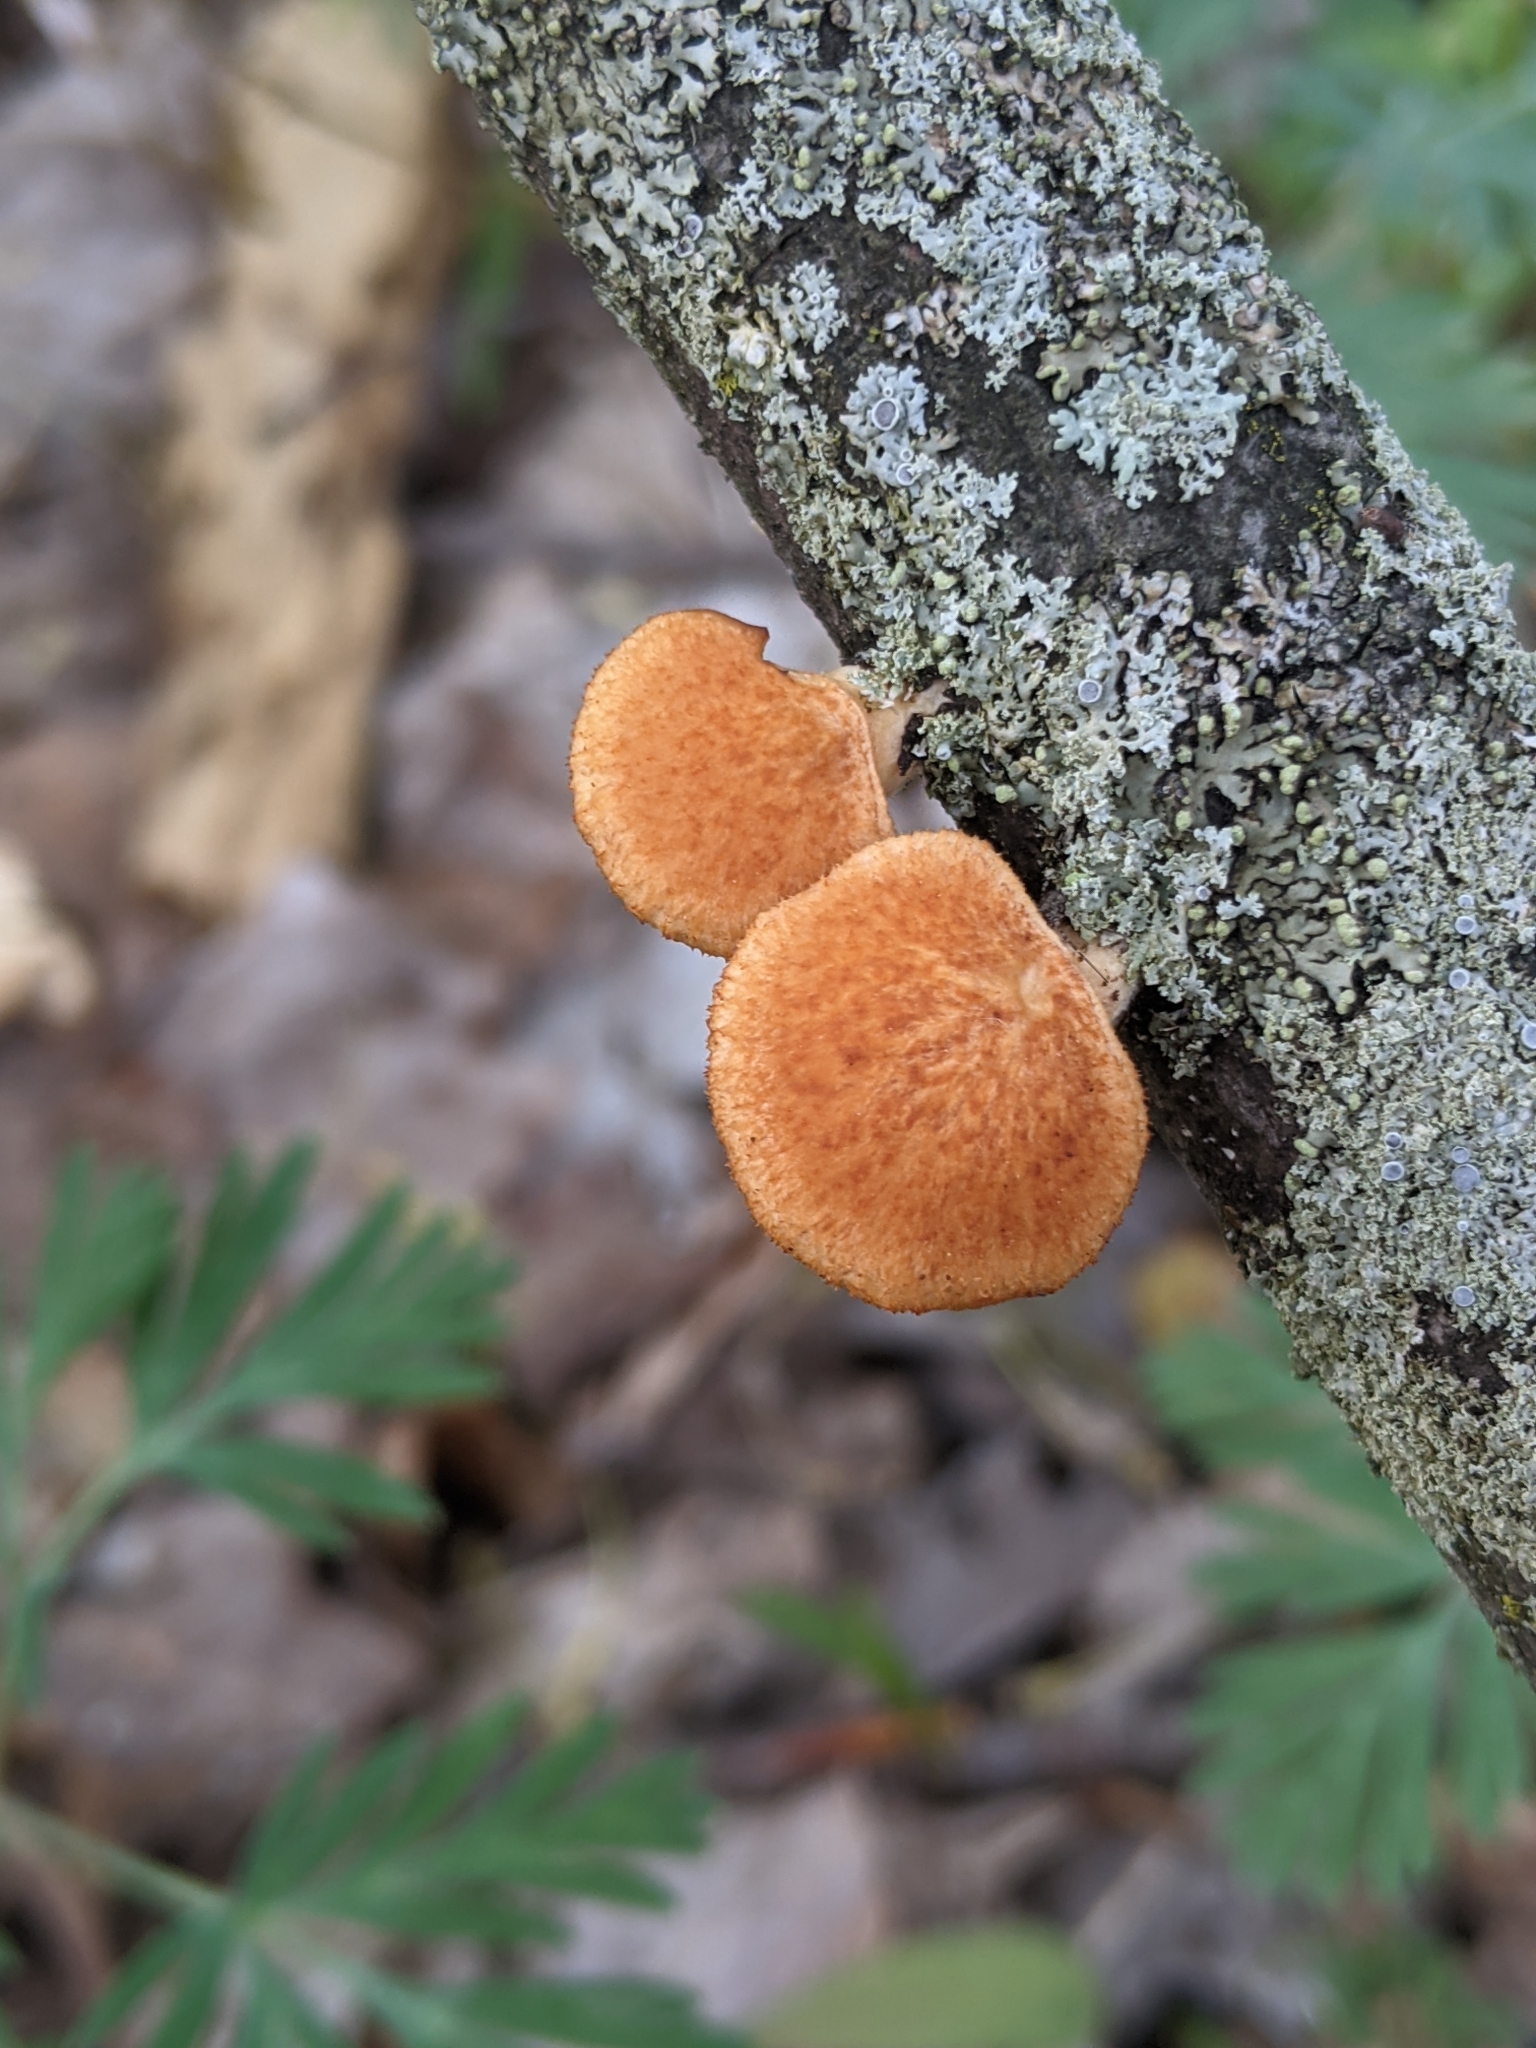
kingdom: Fungi
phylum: Basidiomycota
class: Agaricomycetes
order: Polyporales
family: Polyporaceae
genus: Neofavolus
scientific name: Neofavolus alveolaris
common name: Hexagonal-pored polypore
